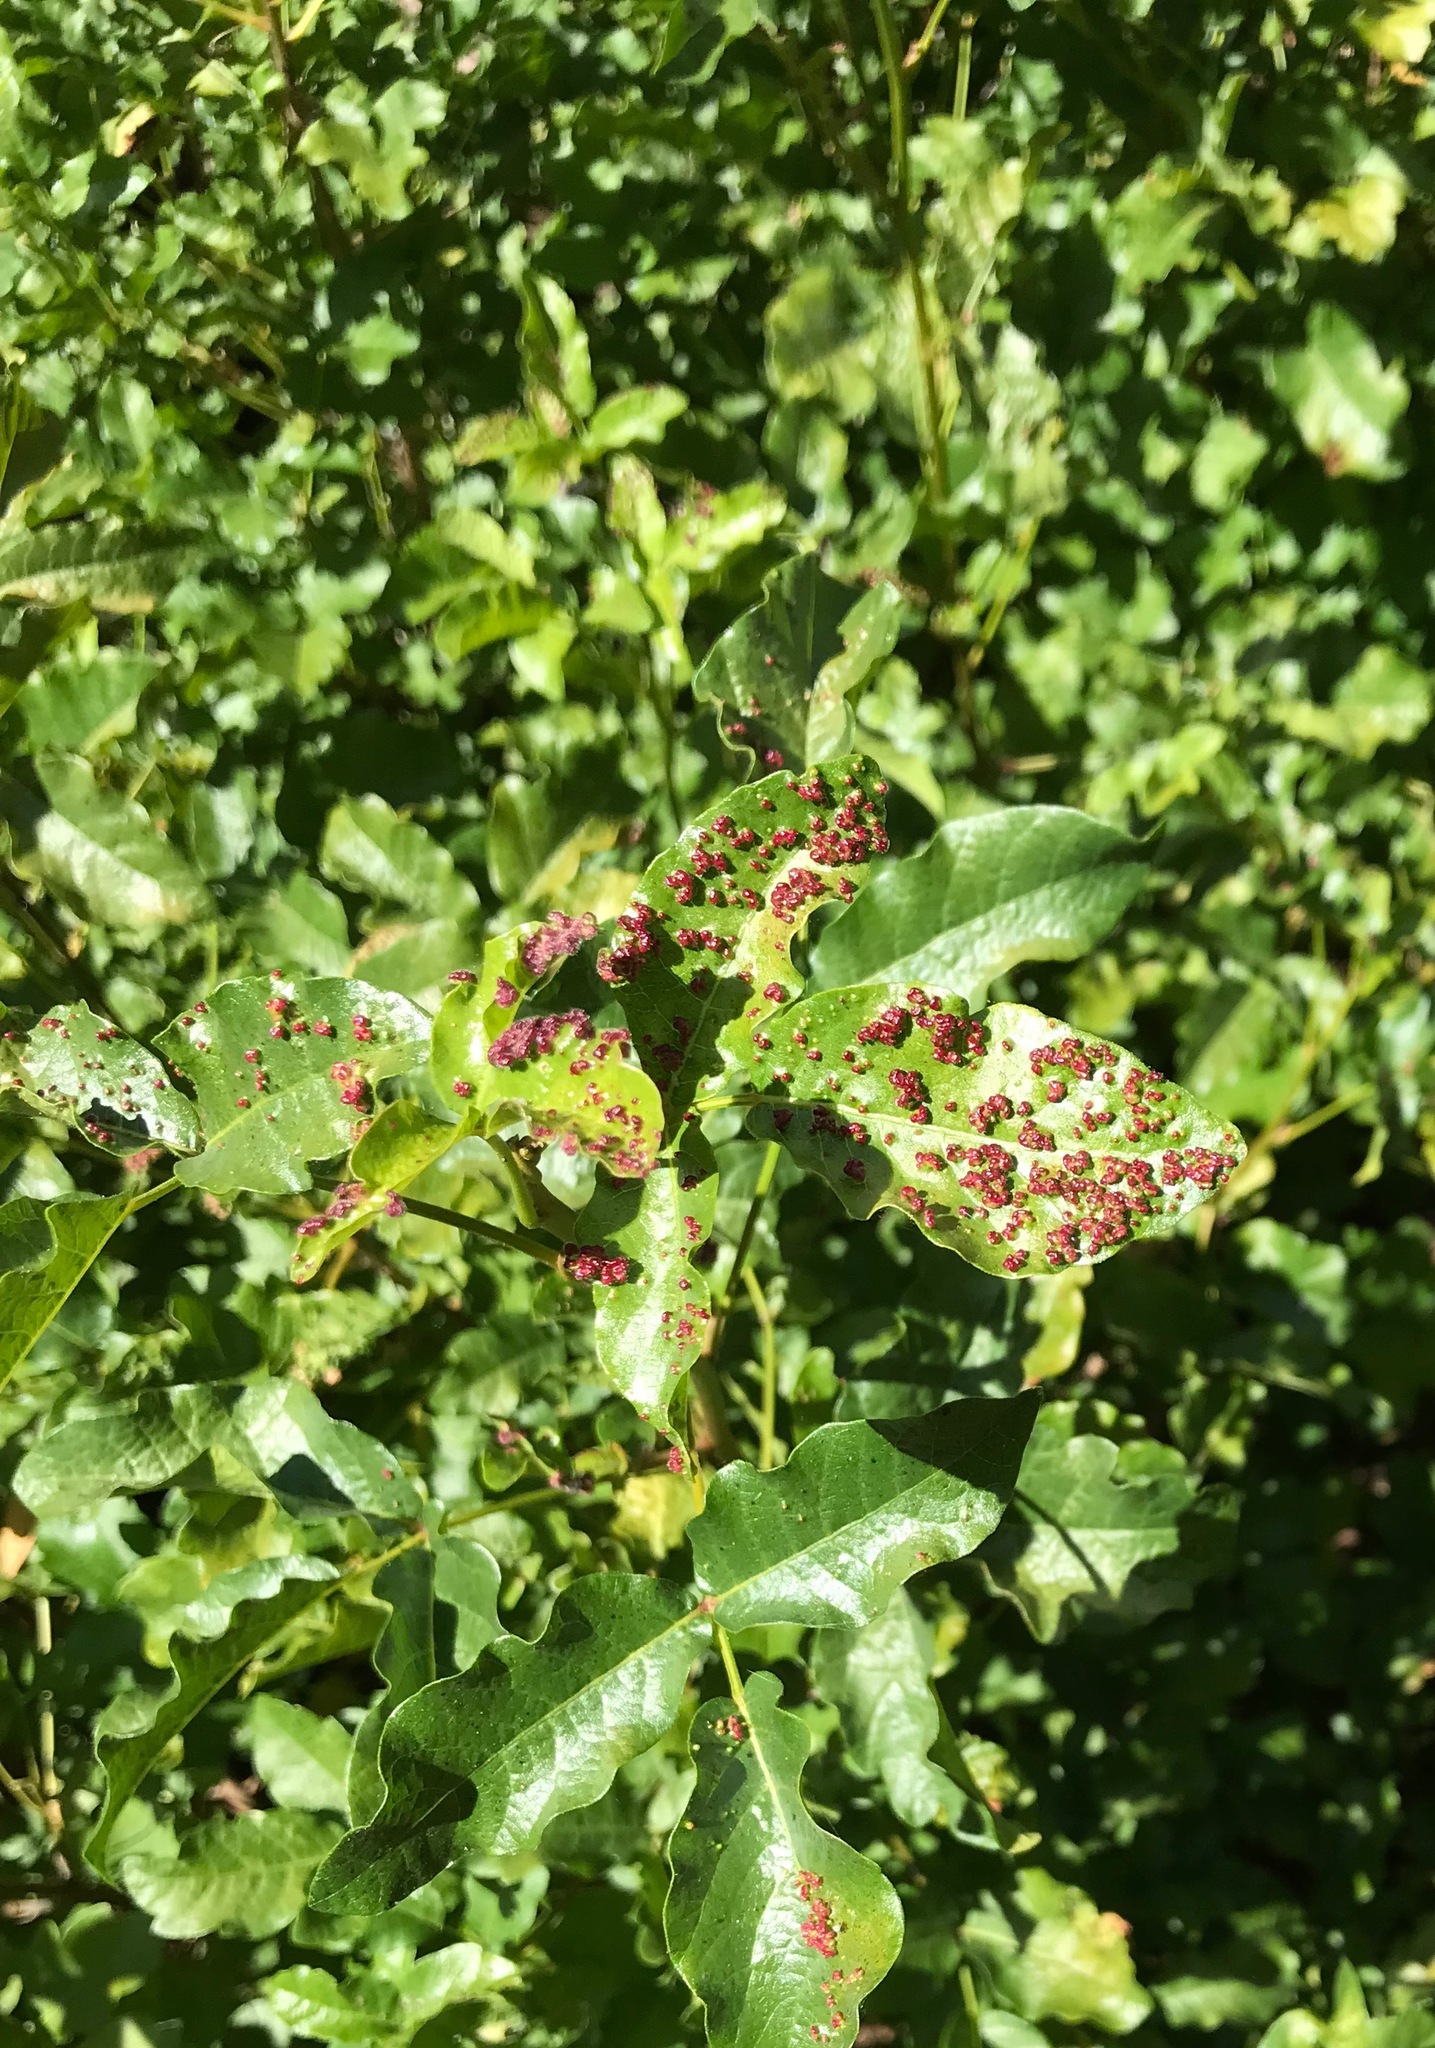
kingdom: Plantae
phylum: Tracheophyta
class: Magnoliopsida
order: Sapindales
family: Anacardiaceae
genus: Toxicodendron
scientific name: Toxicodendron diversilobum
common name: Pacific poison-oak
